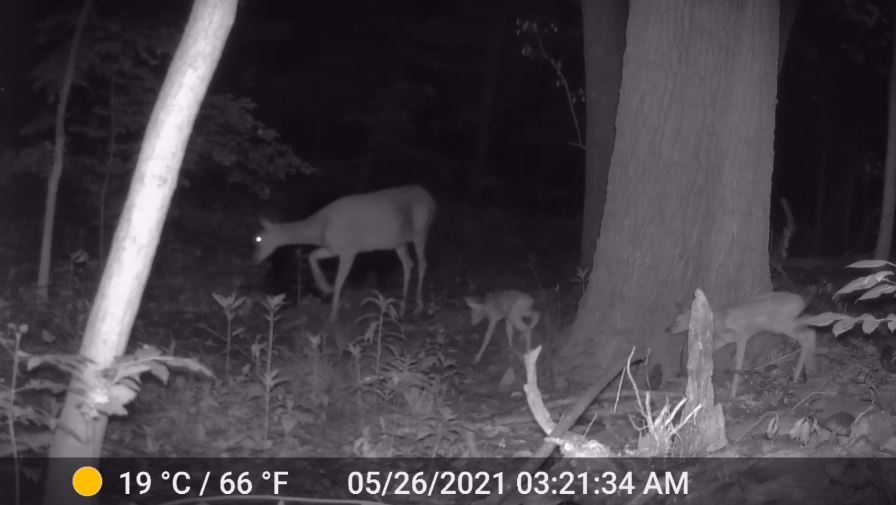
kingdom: Animalia
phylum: Chordata
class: Mammalia
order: Artiodactyla
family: Cervidae
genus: Odocoileus
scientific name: Odocoileus virginianus
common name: White-tailed deer
